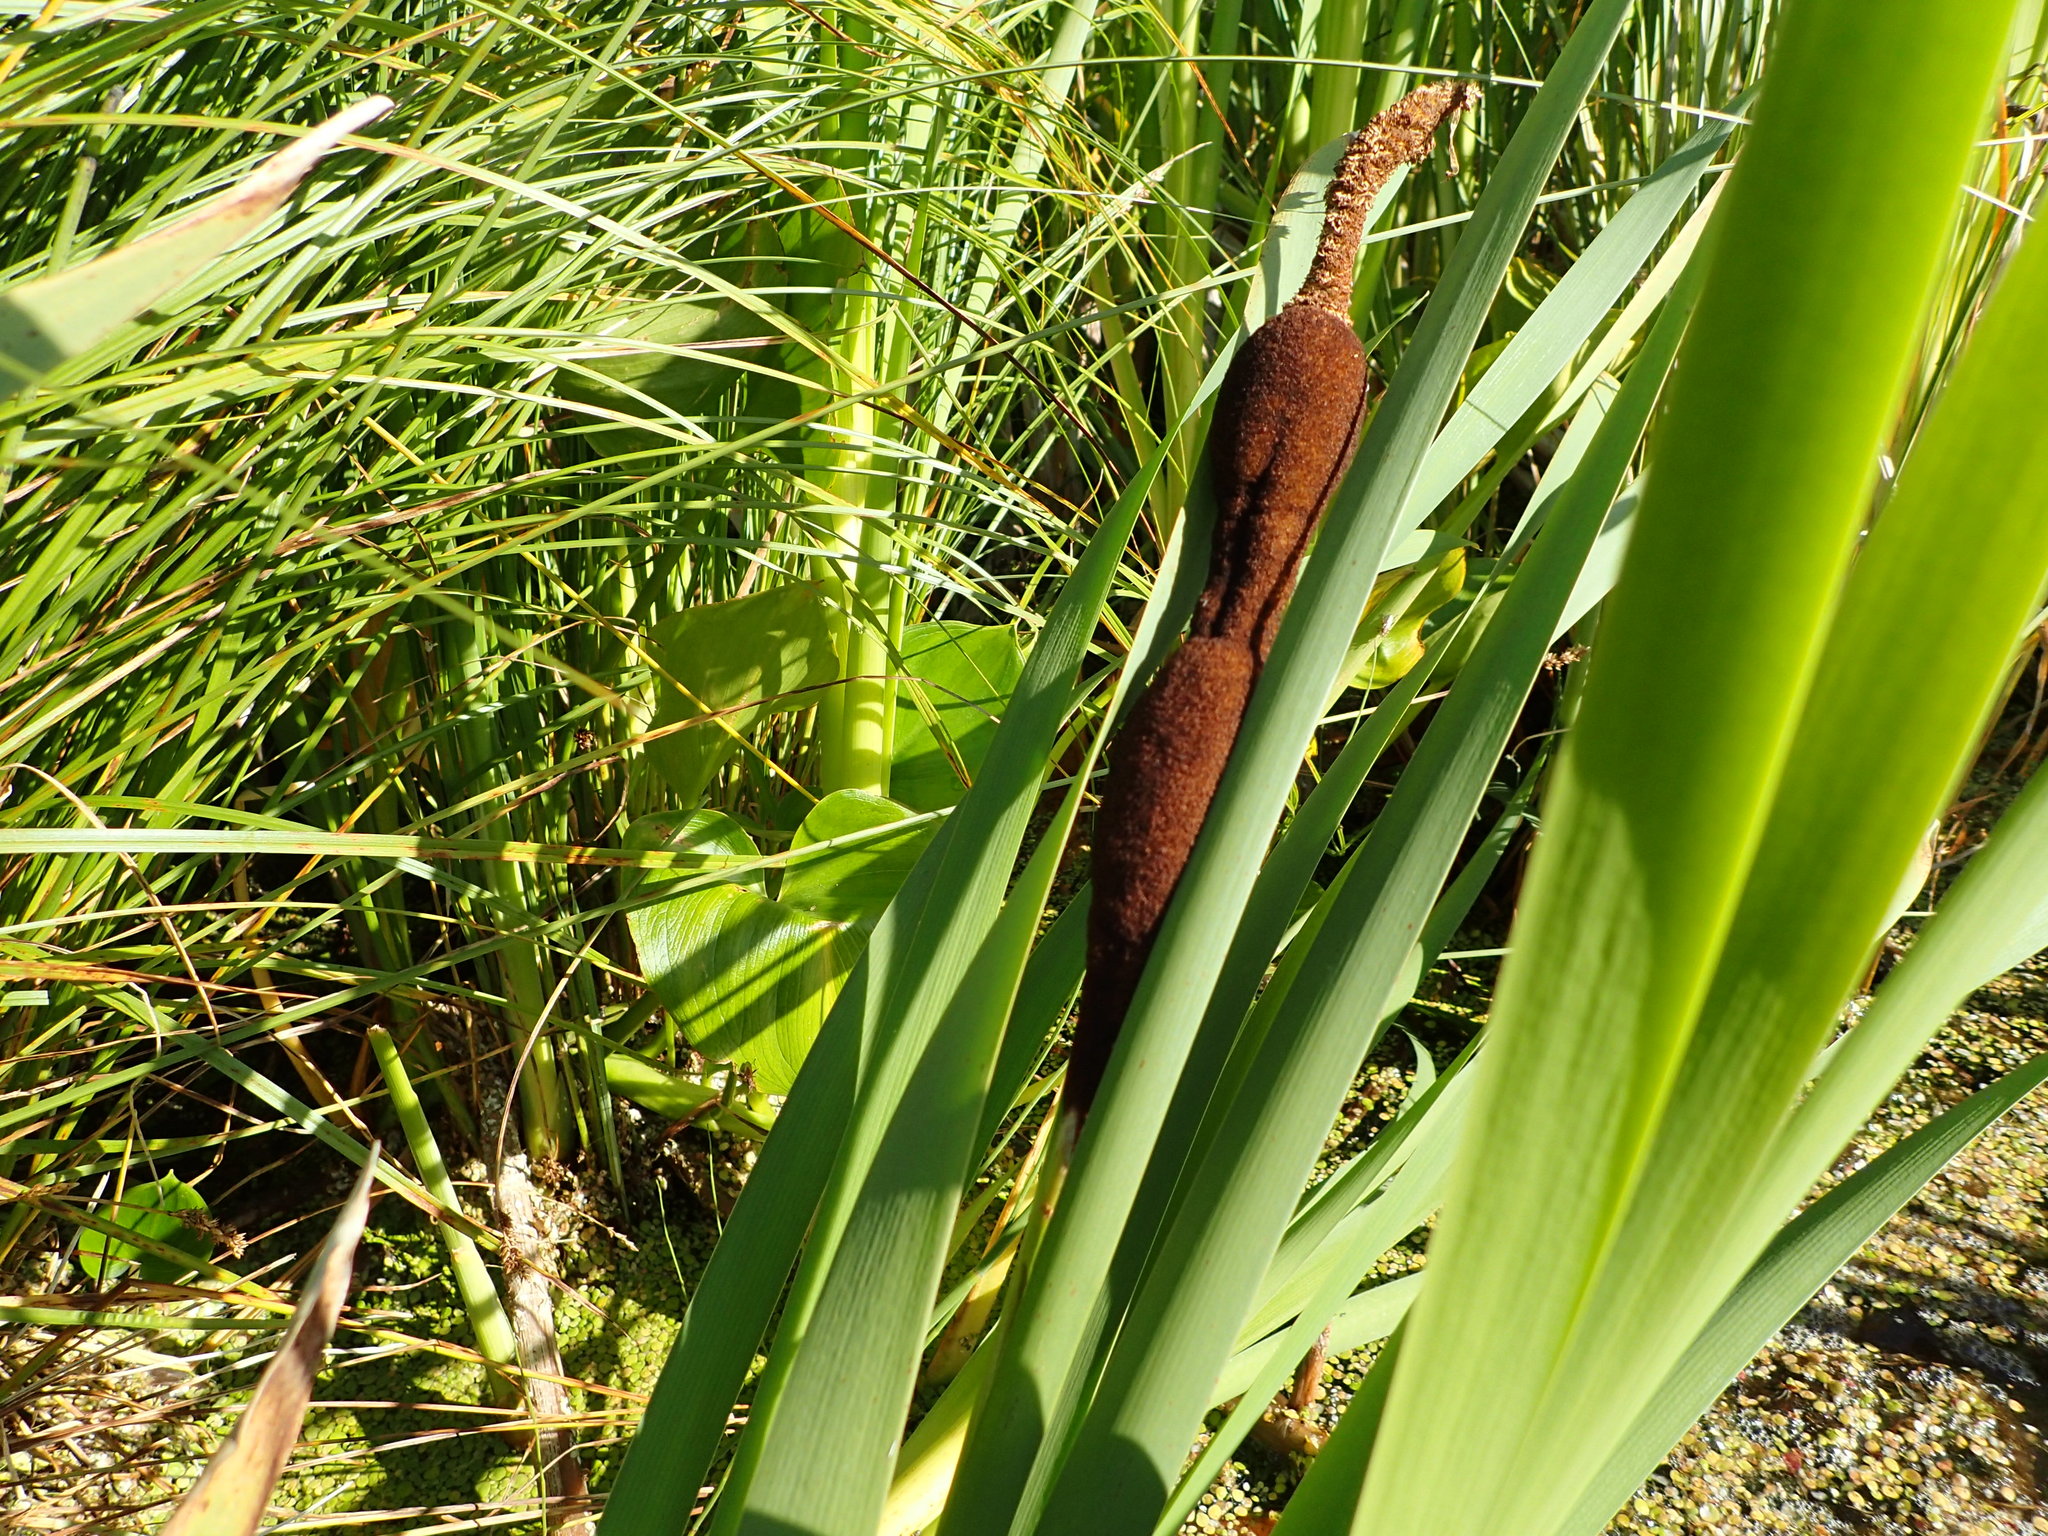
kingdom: Plantae
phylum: Tracheophyta
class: Liliopsida
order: Poales
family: Typhaceae
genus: Typha
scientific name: Typha latifolia
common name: Broadleaf cattail
